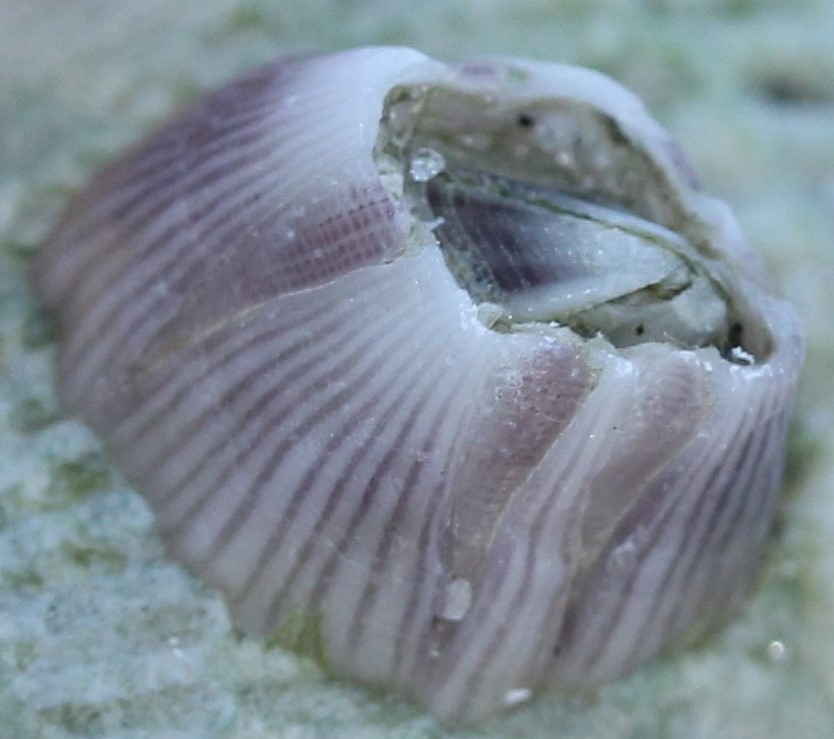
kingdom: Animalia
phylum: Arthropoda
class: Maxillopoda
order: Sessilia
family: Balanidae
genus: Amphibalanus
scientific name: Amphibalanus venustus
